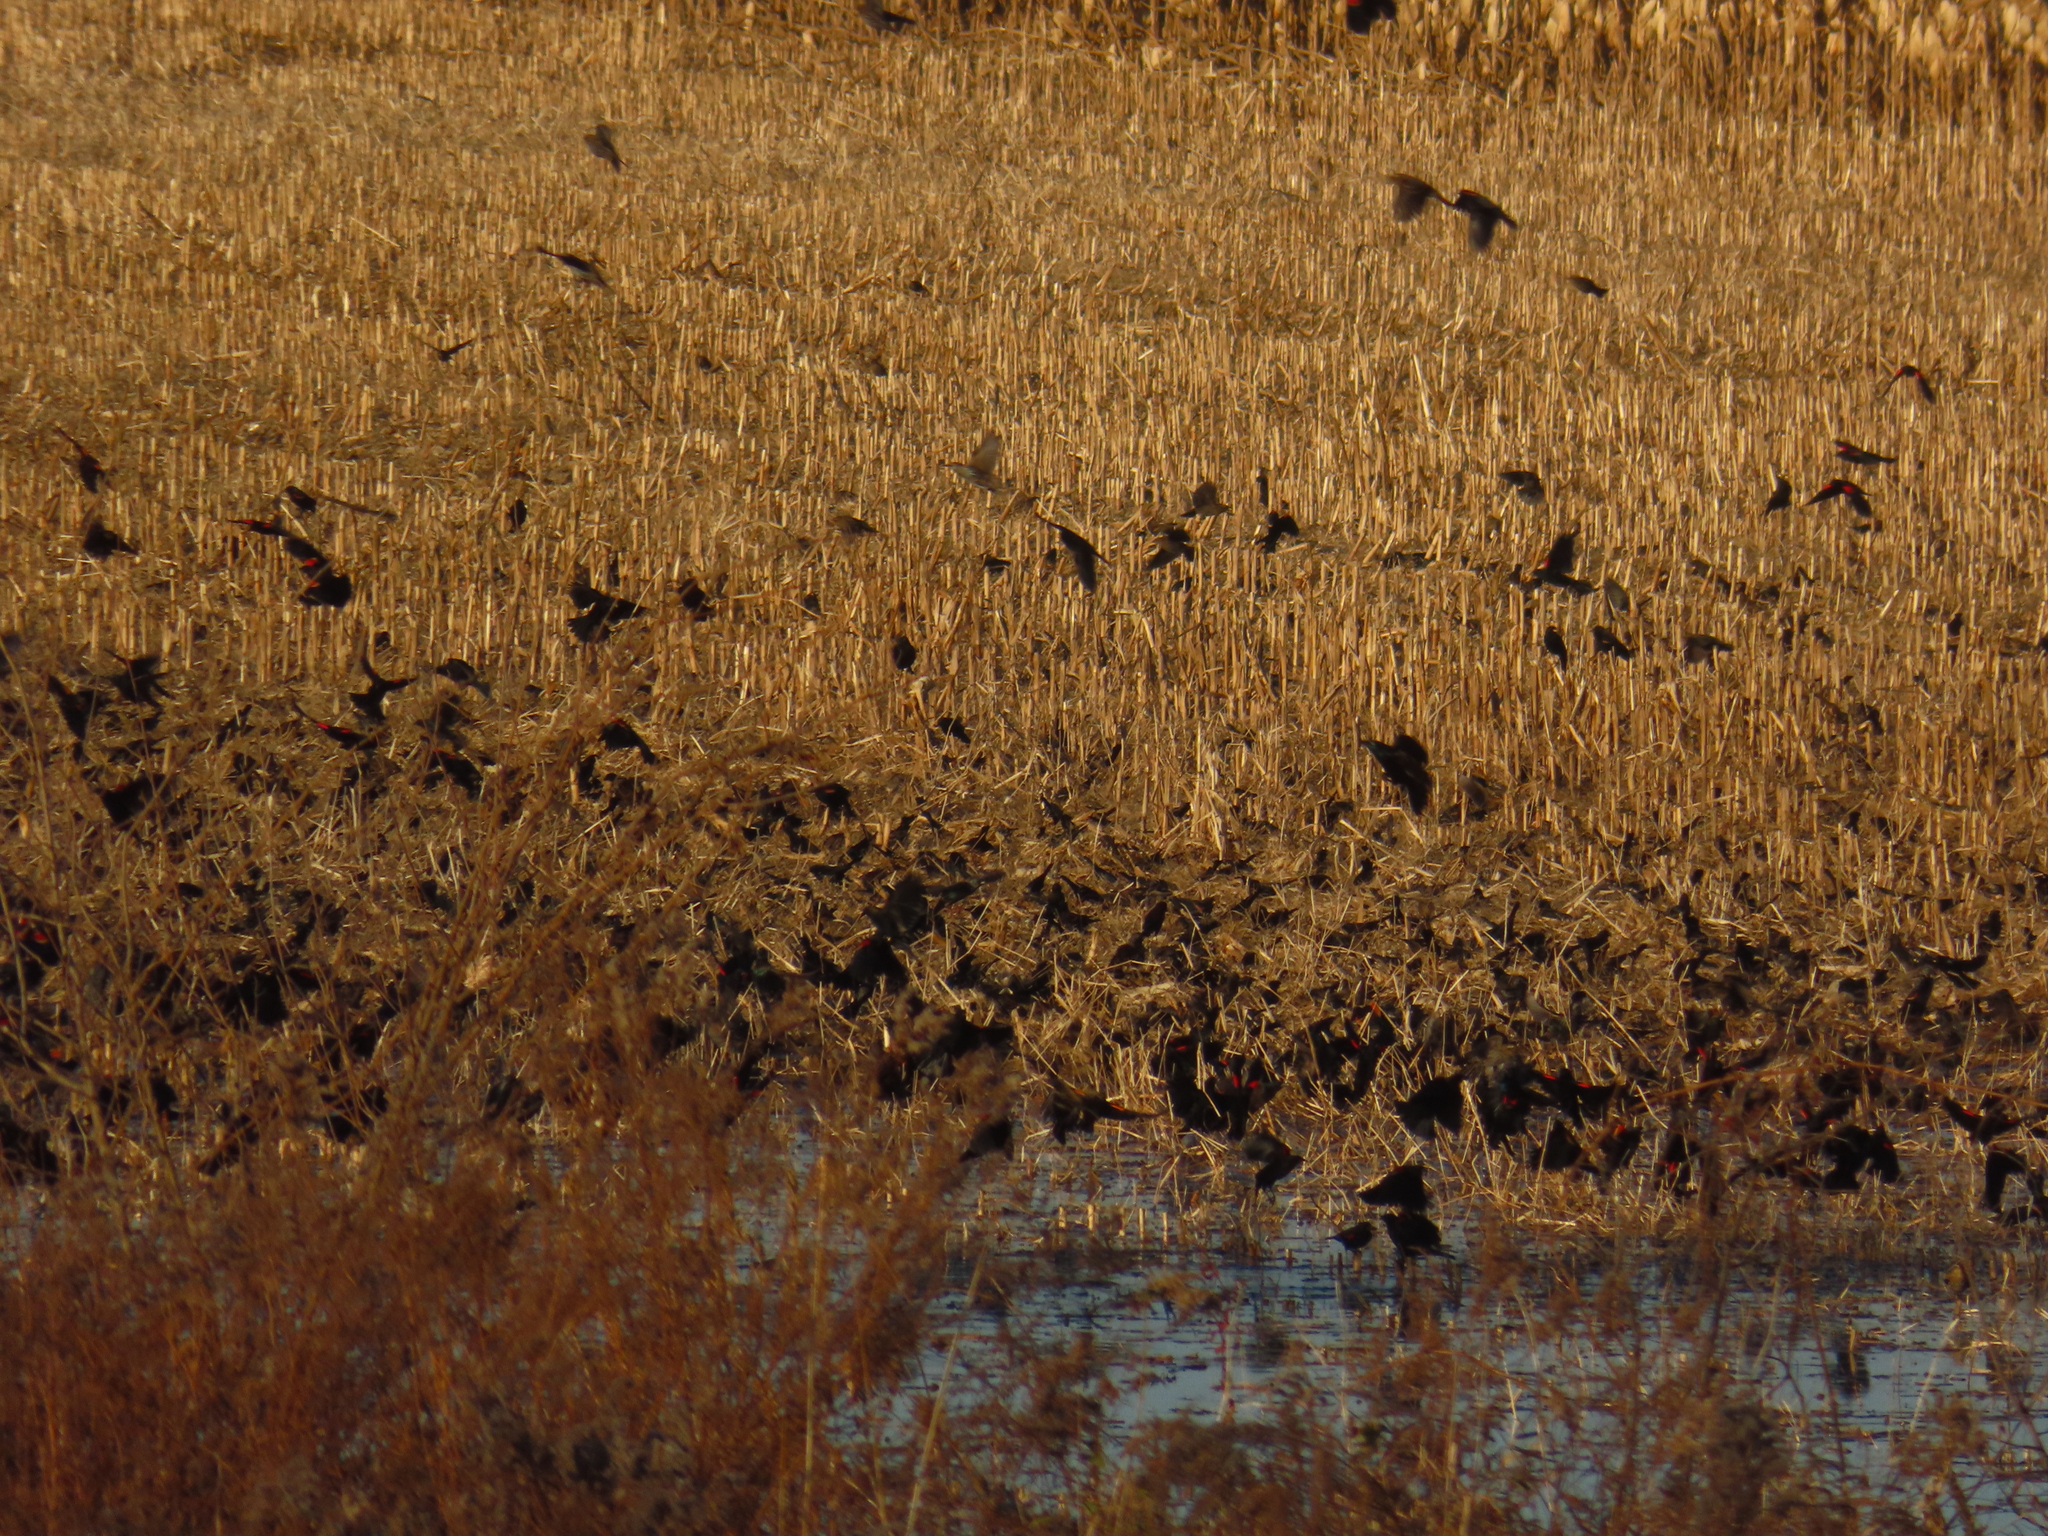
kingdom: Animalia
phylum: Chordata
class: Aves
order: Passeriformes
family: Icteridae
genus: Agelaius
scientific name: Agelaius phoeniceus
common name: Red-winged blackbird
